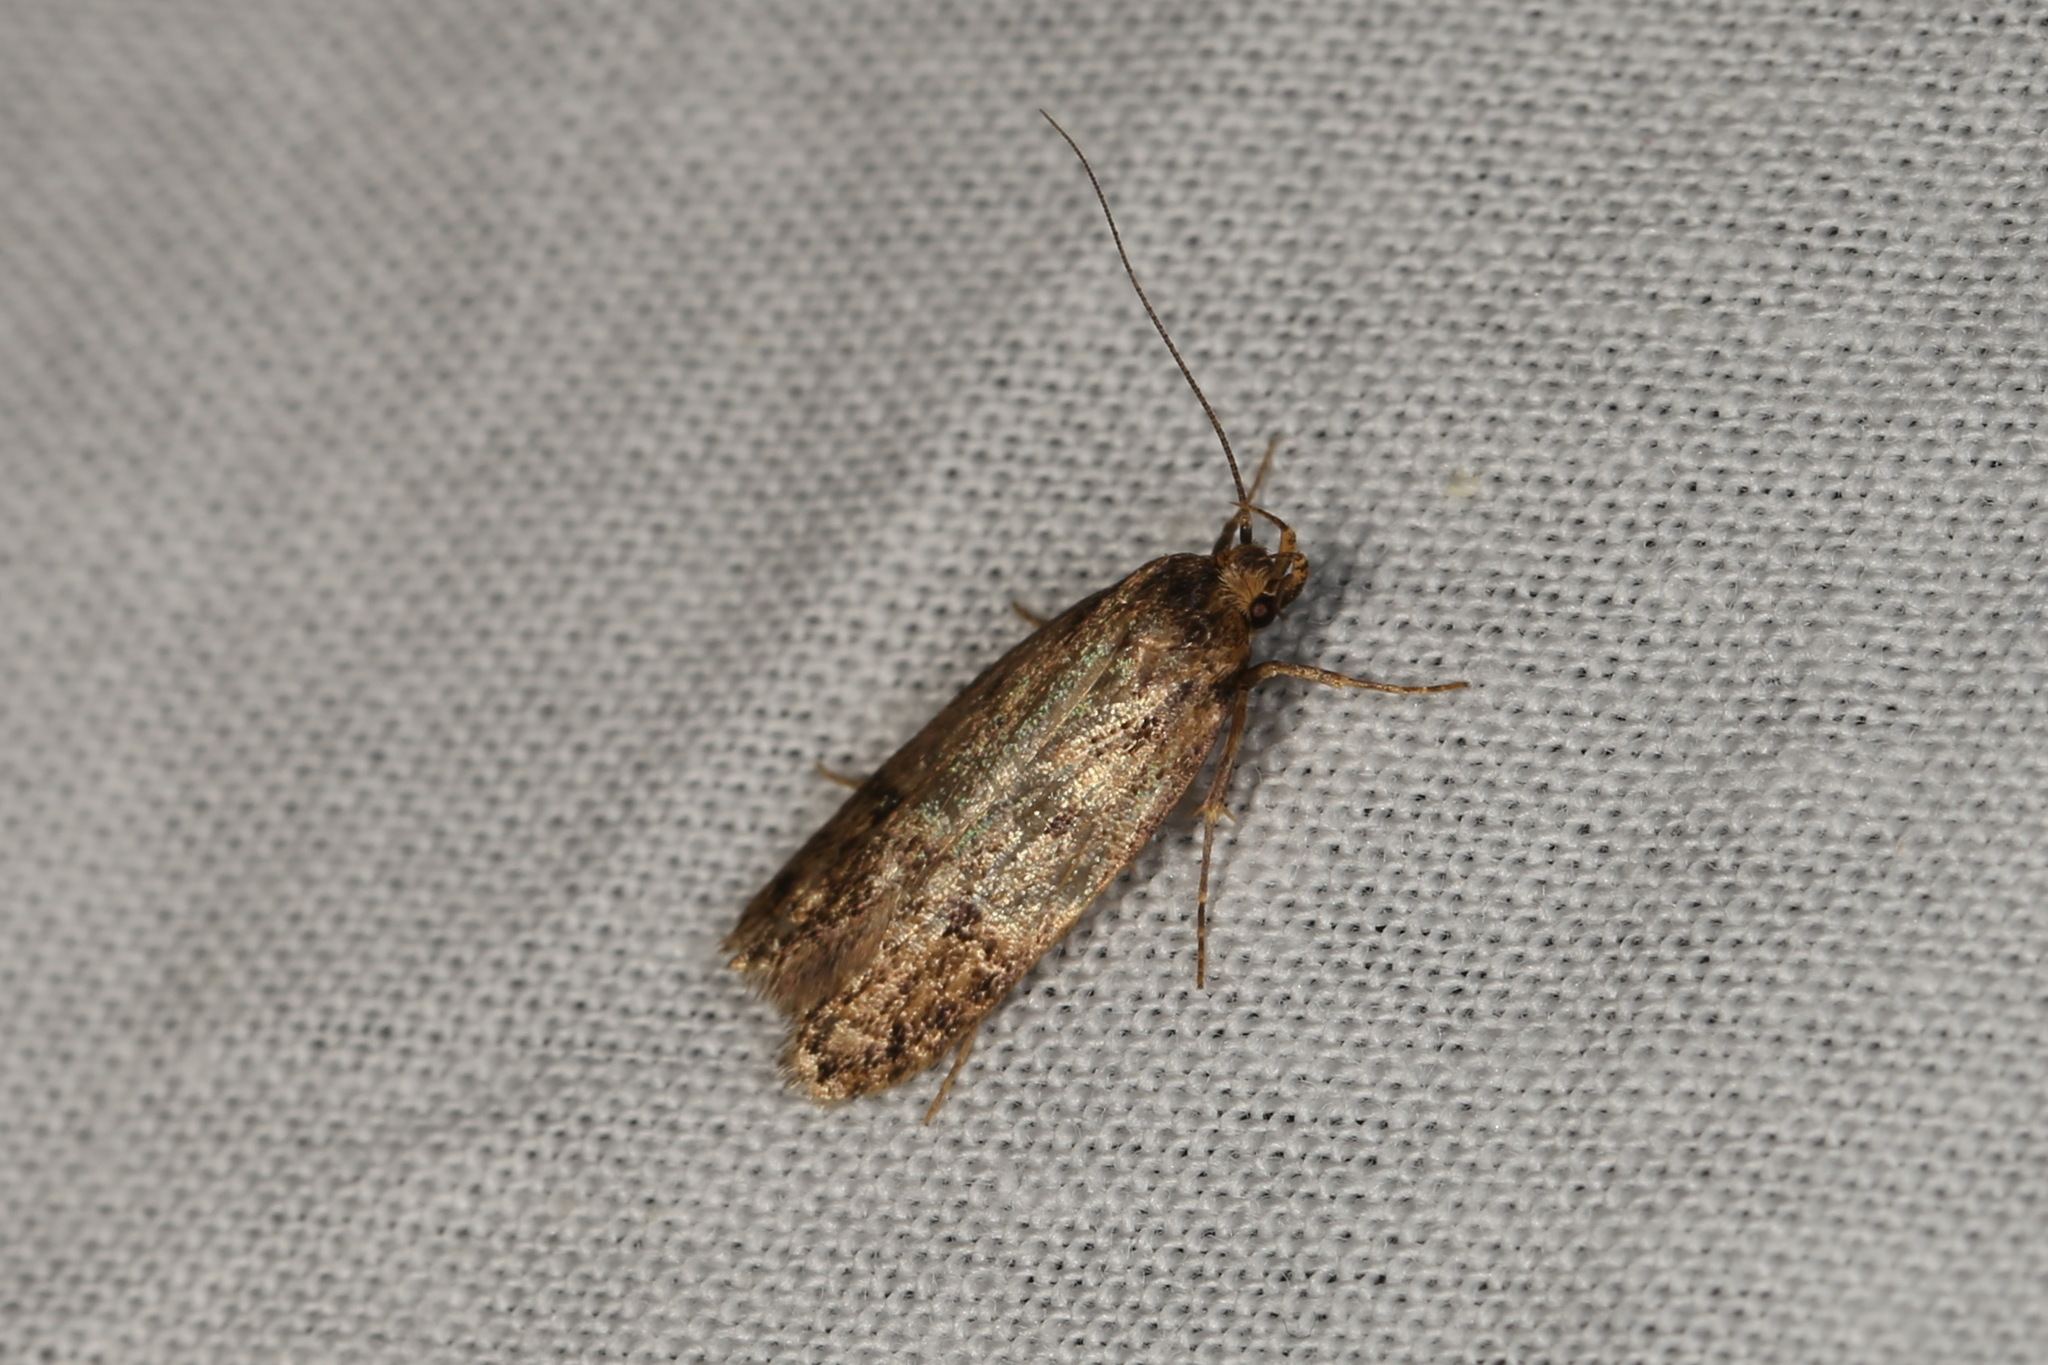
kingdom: Animalia
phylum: Arthropoda
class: Insecta
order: Lepidoptera
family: Oecophoridae
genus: Hofmannophila
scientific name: Hofmannophila pseudospretella
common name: Brown house moth
